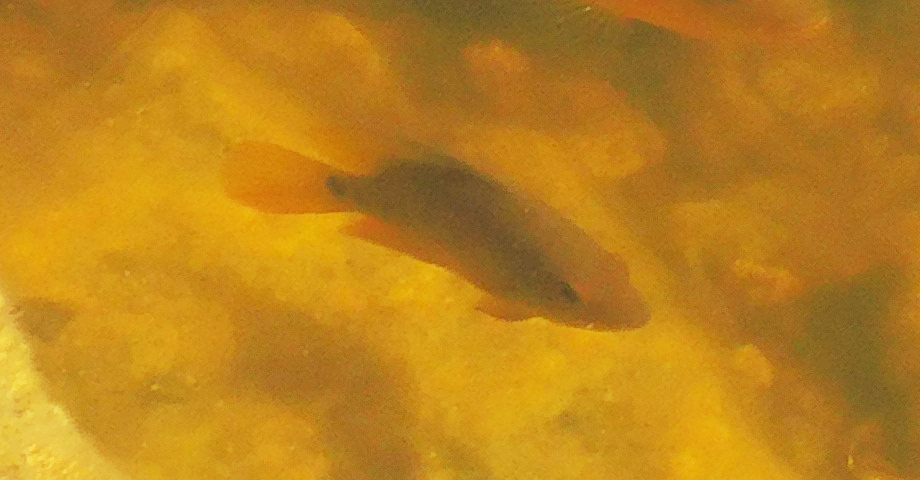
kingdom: Animalia
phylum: Chordata
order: Perciformes
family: Cichlidae
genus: Mayaheros
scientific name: Mayaheros urophthalmus
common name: Mayan cichlid
